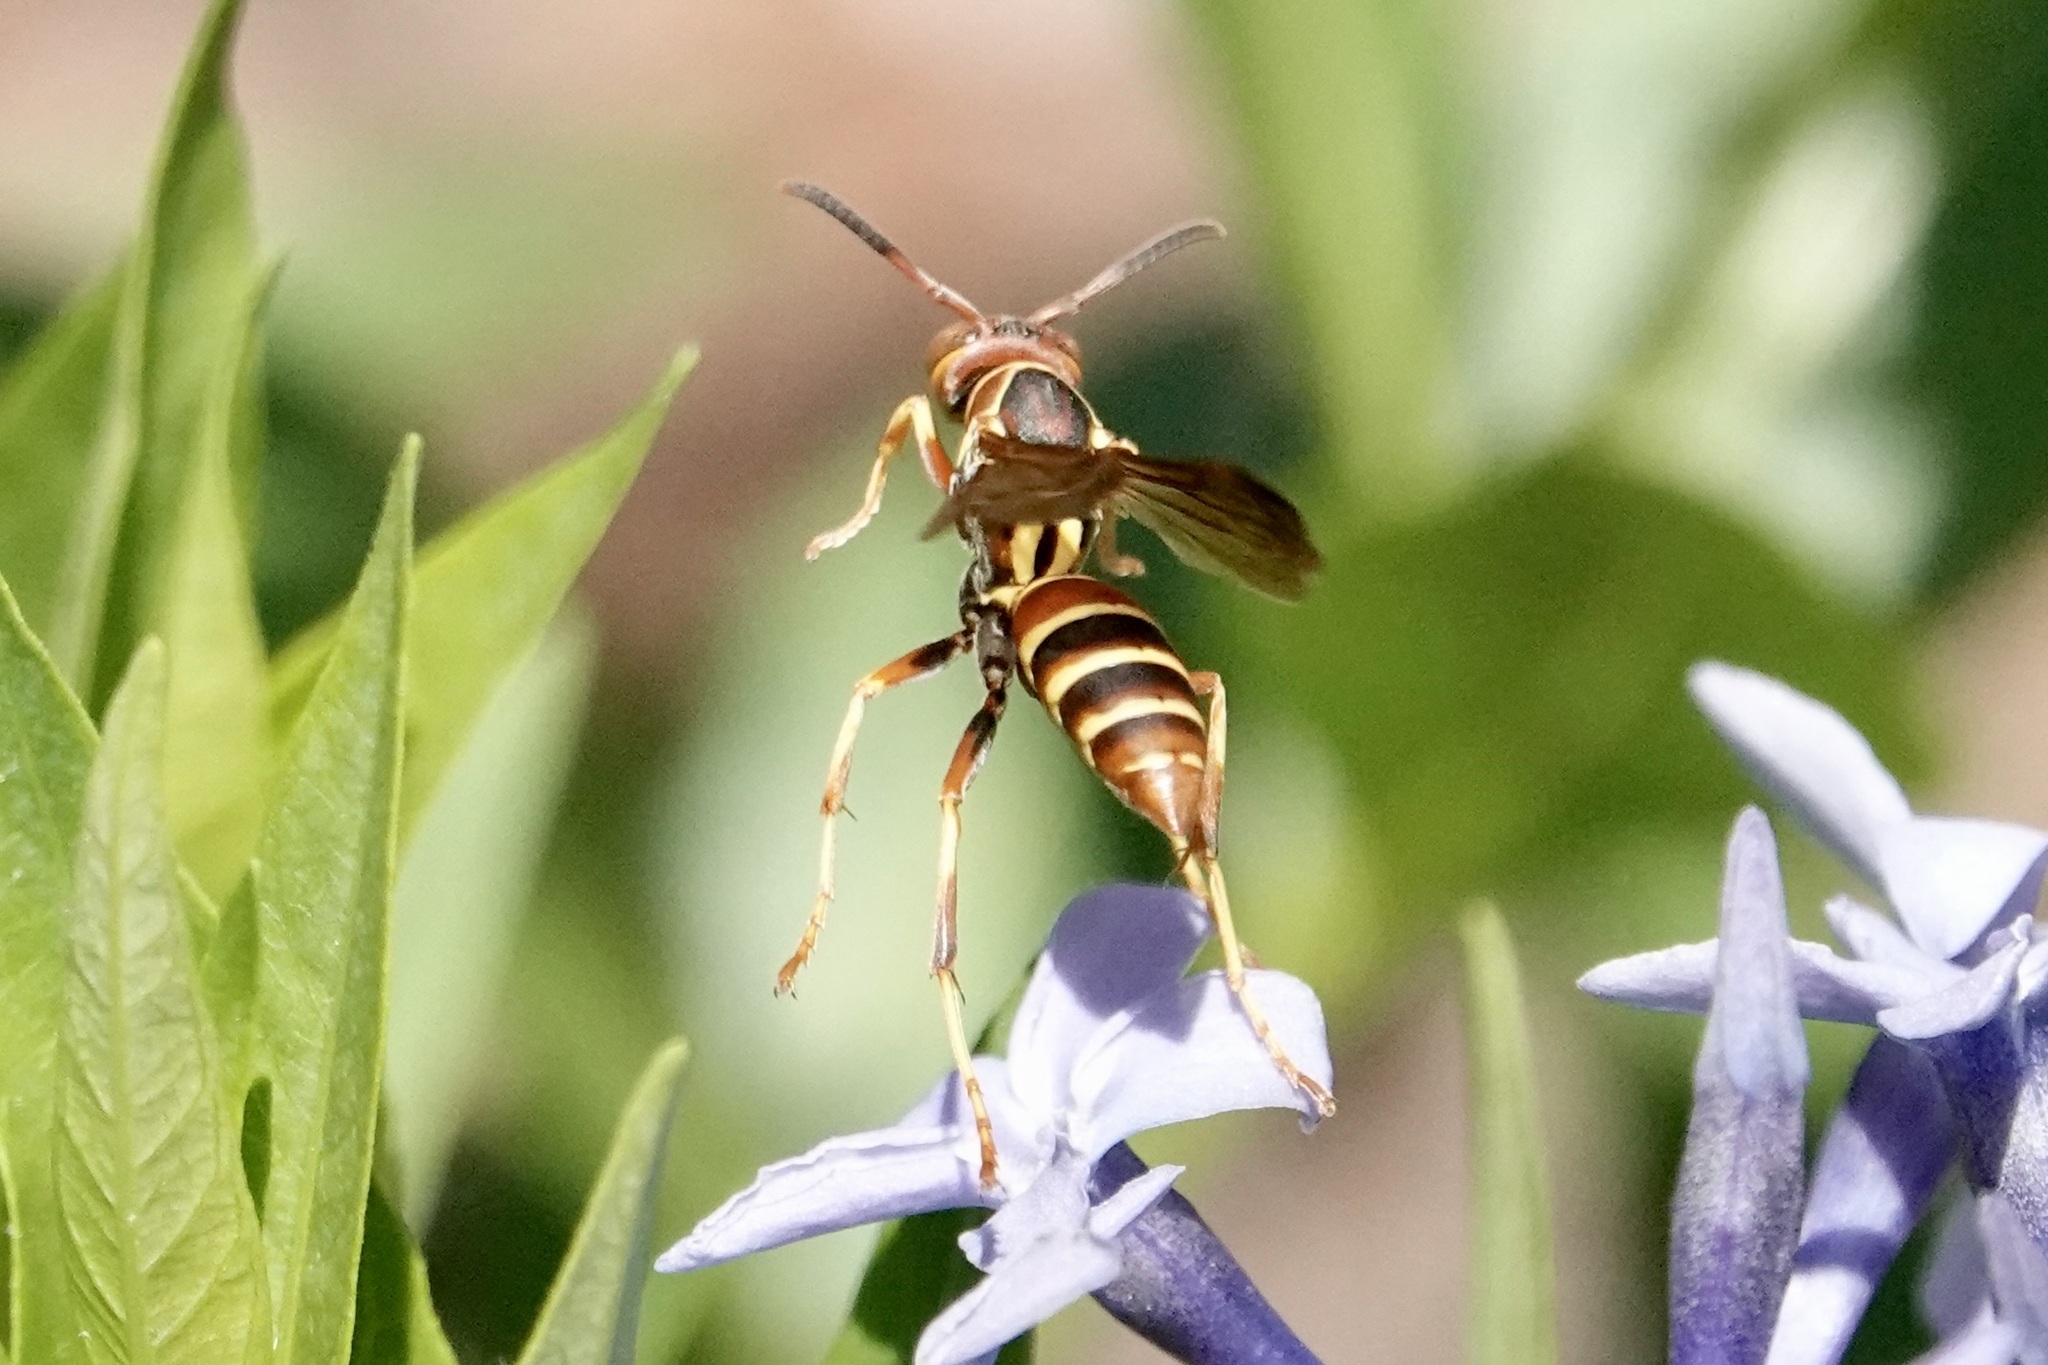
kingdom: Animalia
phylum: Arthropoda
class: Insecta
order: Hymenoptera
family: Eumenidae
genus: Polistes
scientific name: Polistes dorsalis
